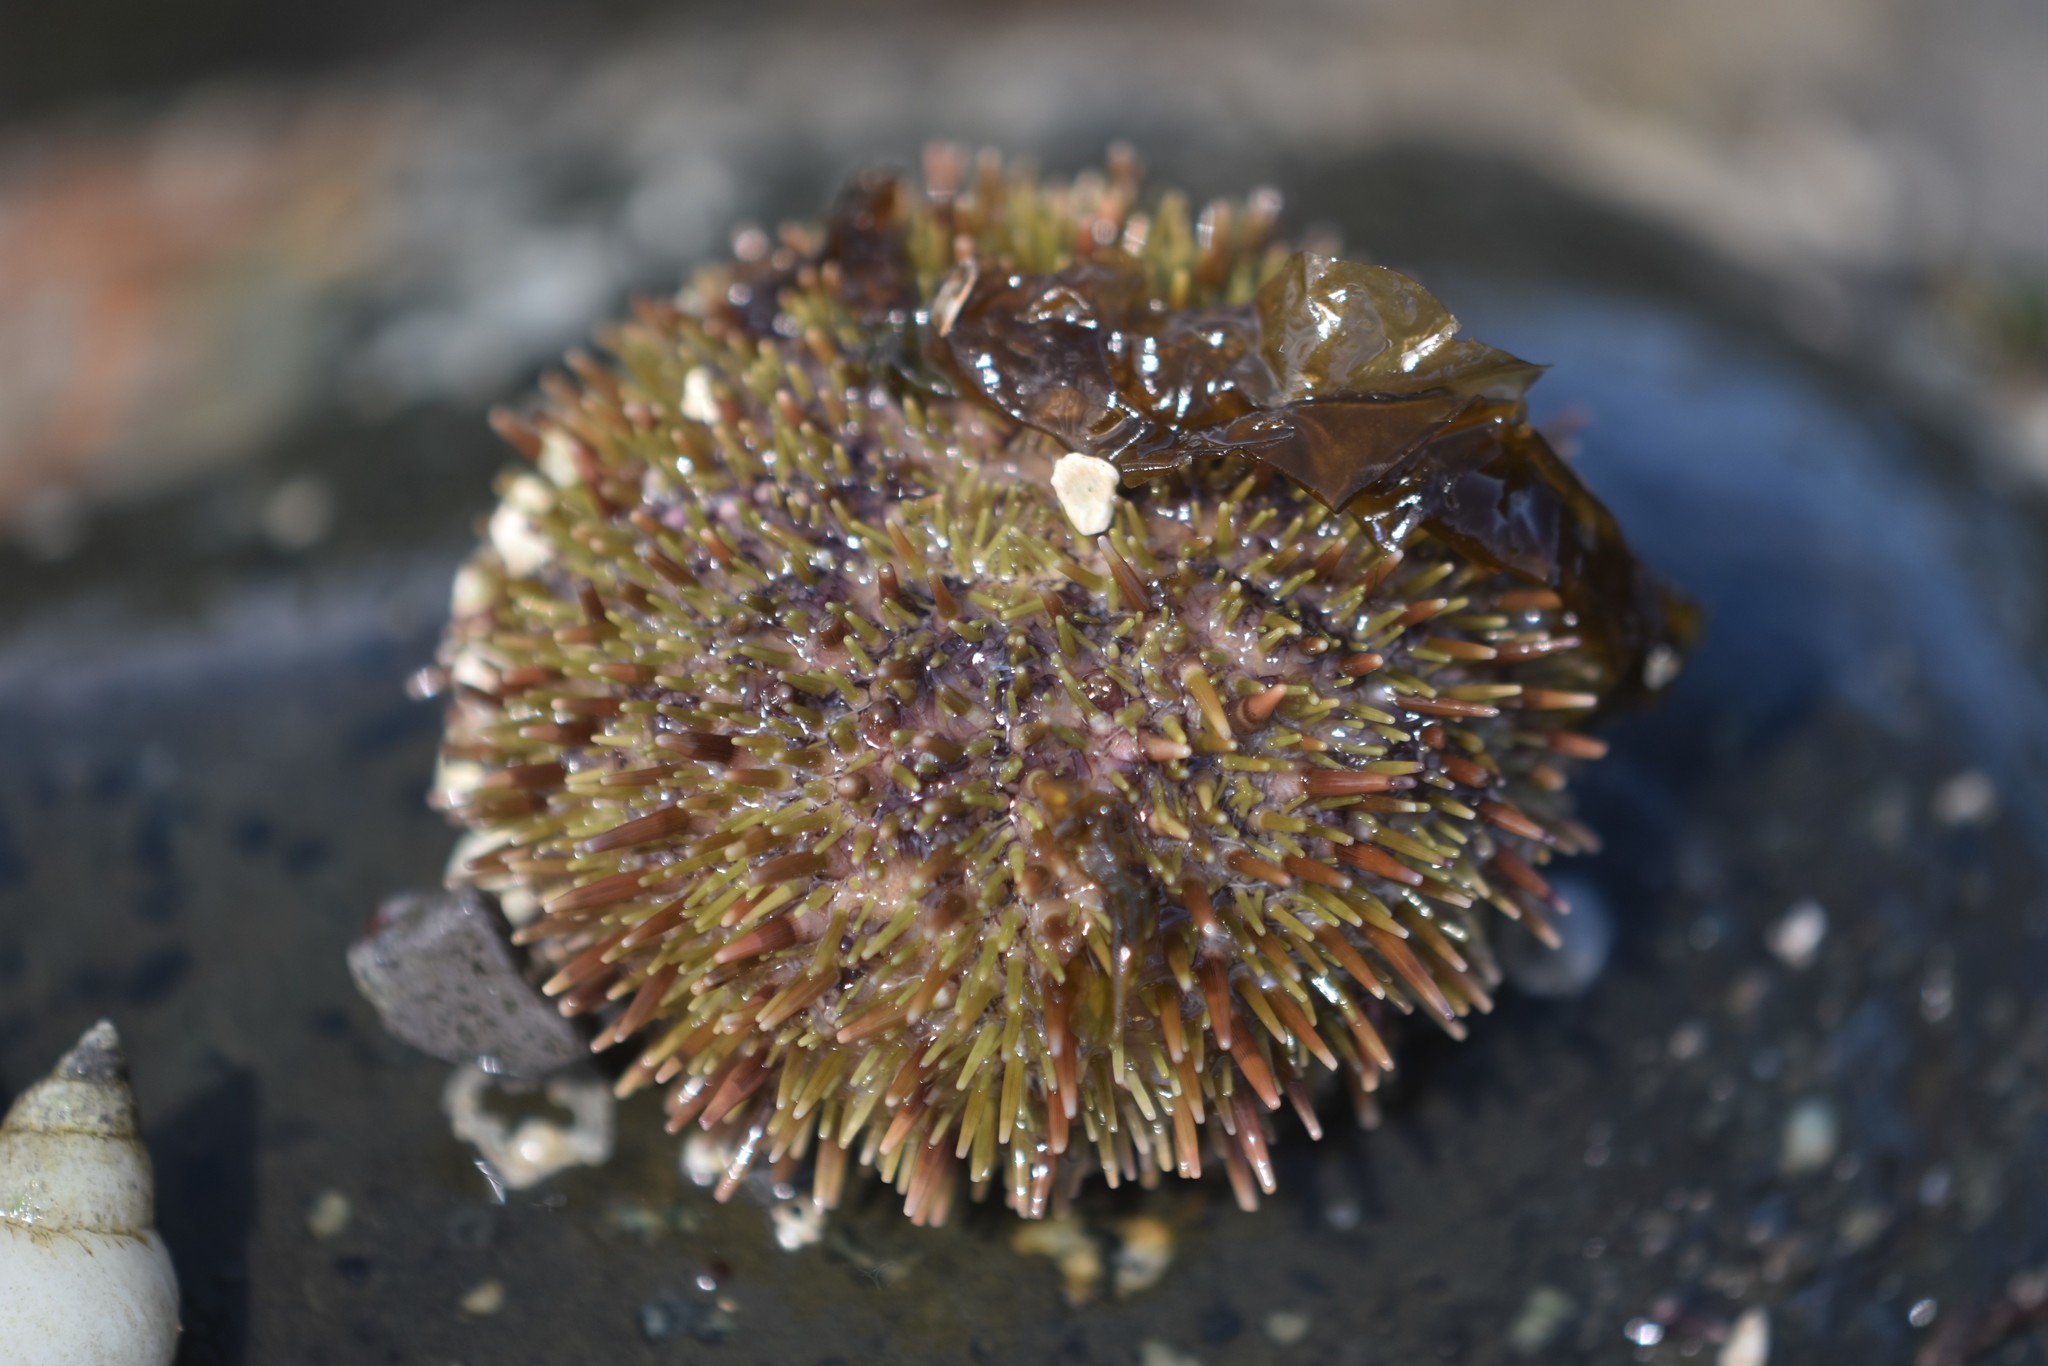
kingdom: Animalia
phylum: Echinodermata
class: Echinoidea
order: Camarodonta
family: Strongylocentrotidae
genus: Strongylocentrotus
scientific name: Strongylocentrotus droebachiensis
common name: Northern sea urchin
